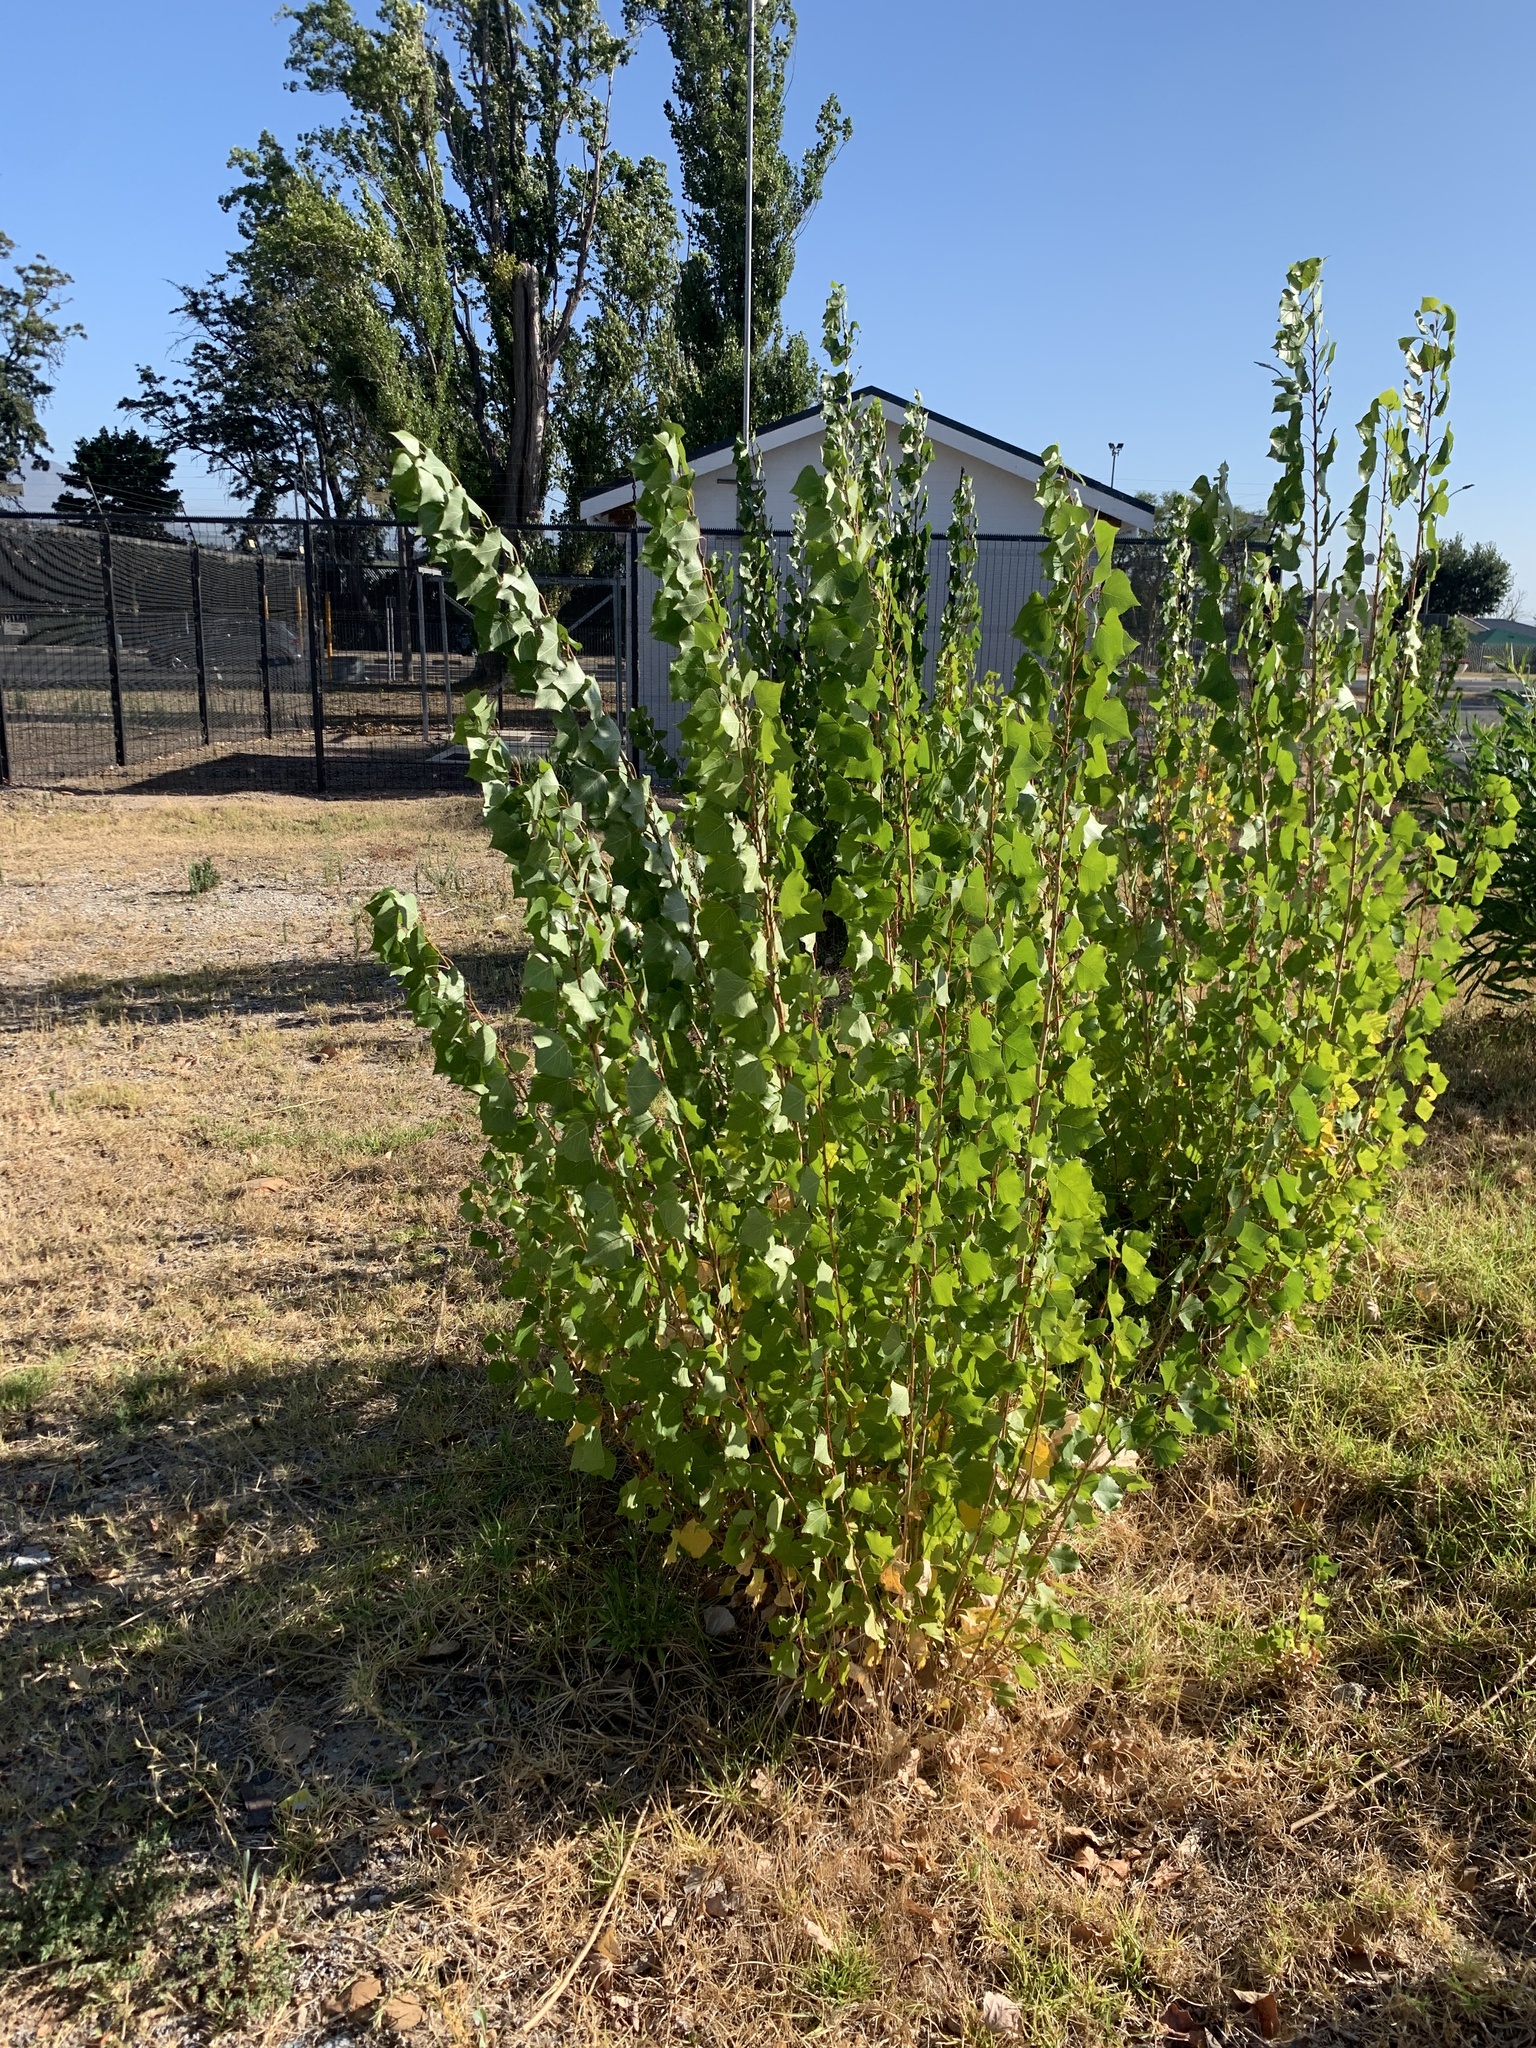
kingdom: Plantae
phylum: Tracheophyta
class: Magnoliopsida
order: Malpighiales
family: Salicaceae
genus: Populus
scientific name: Populus nigra
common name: Black poplar
